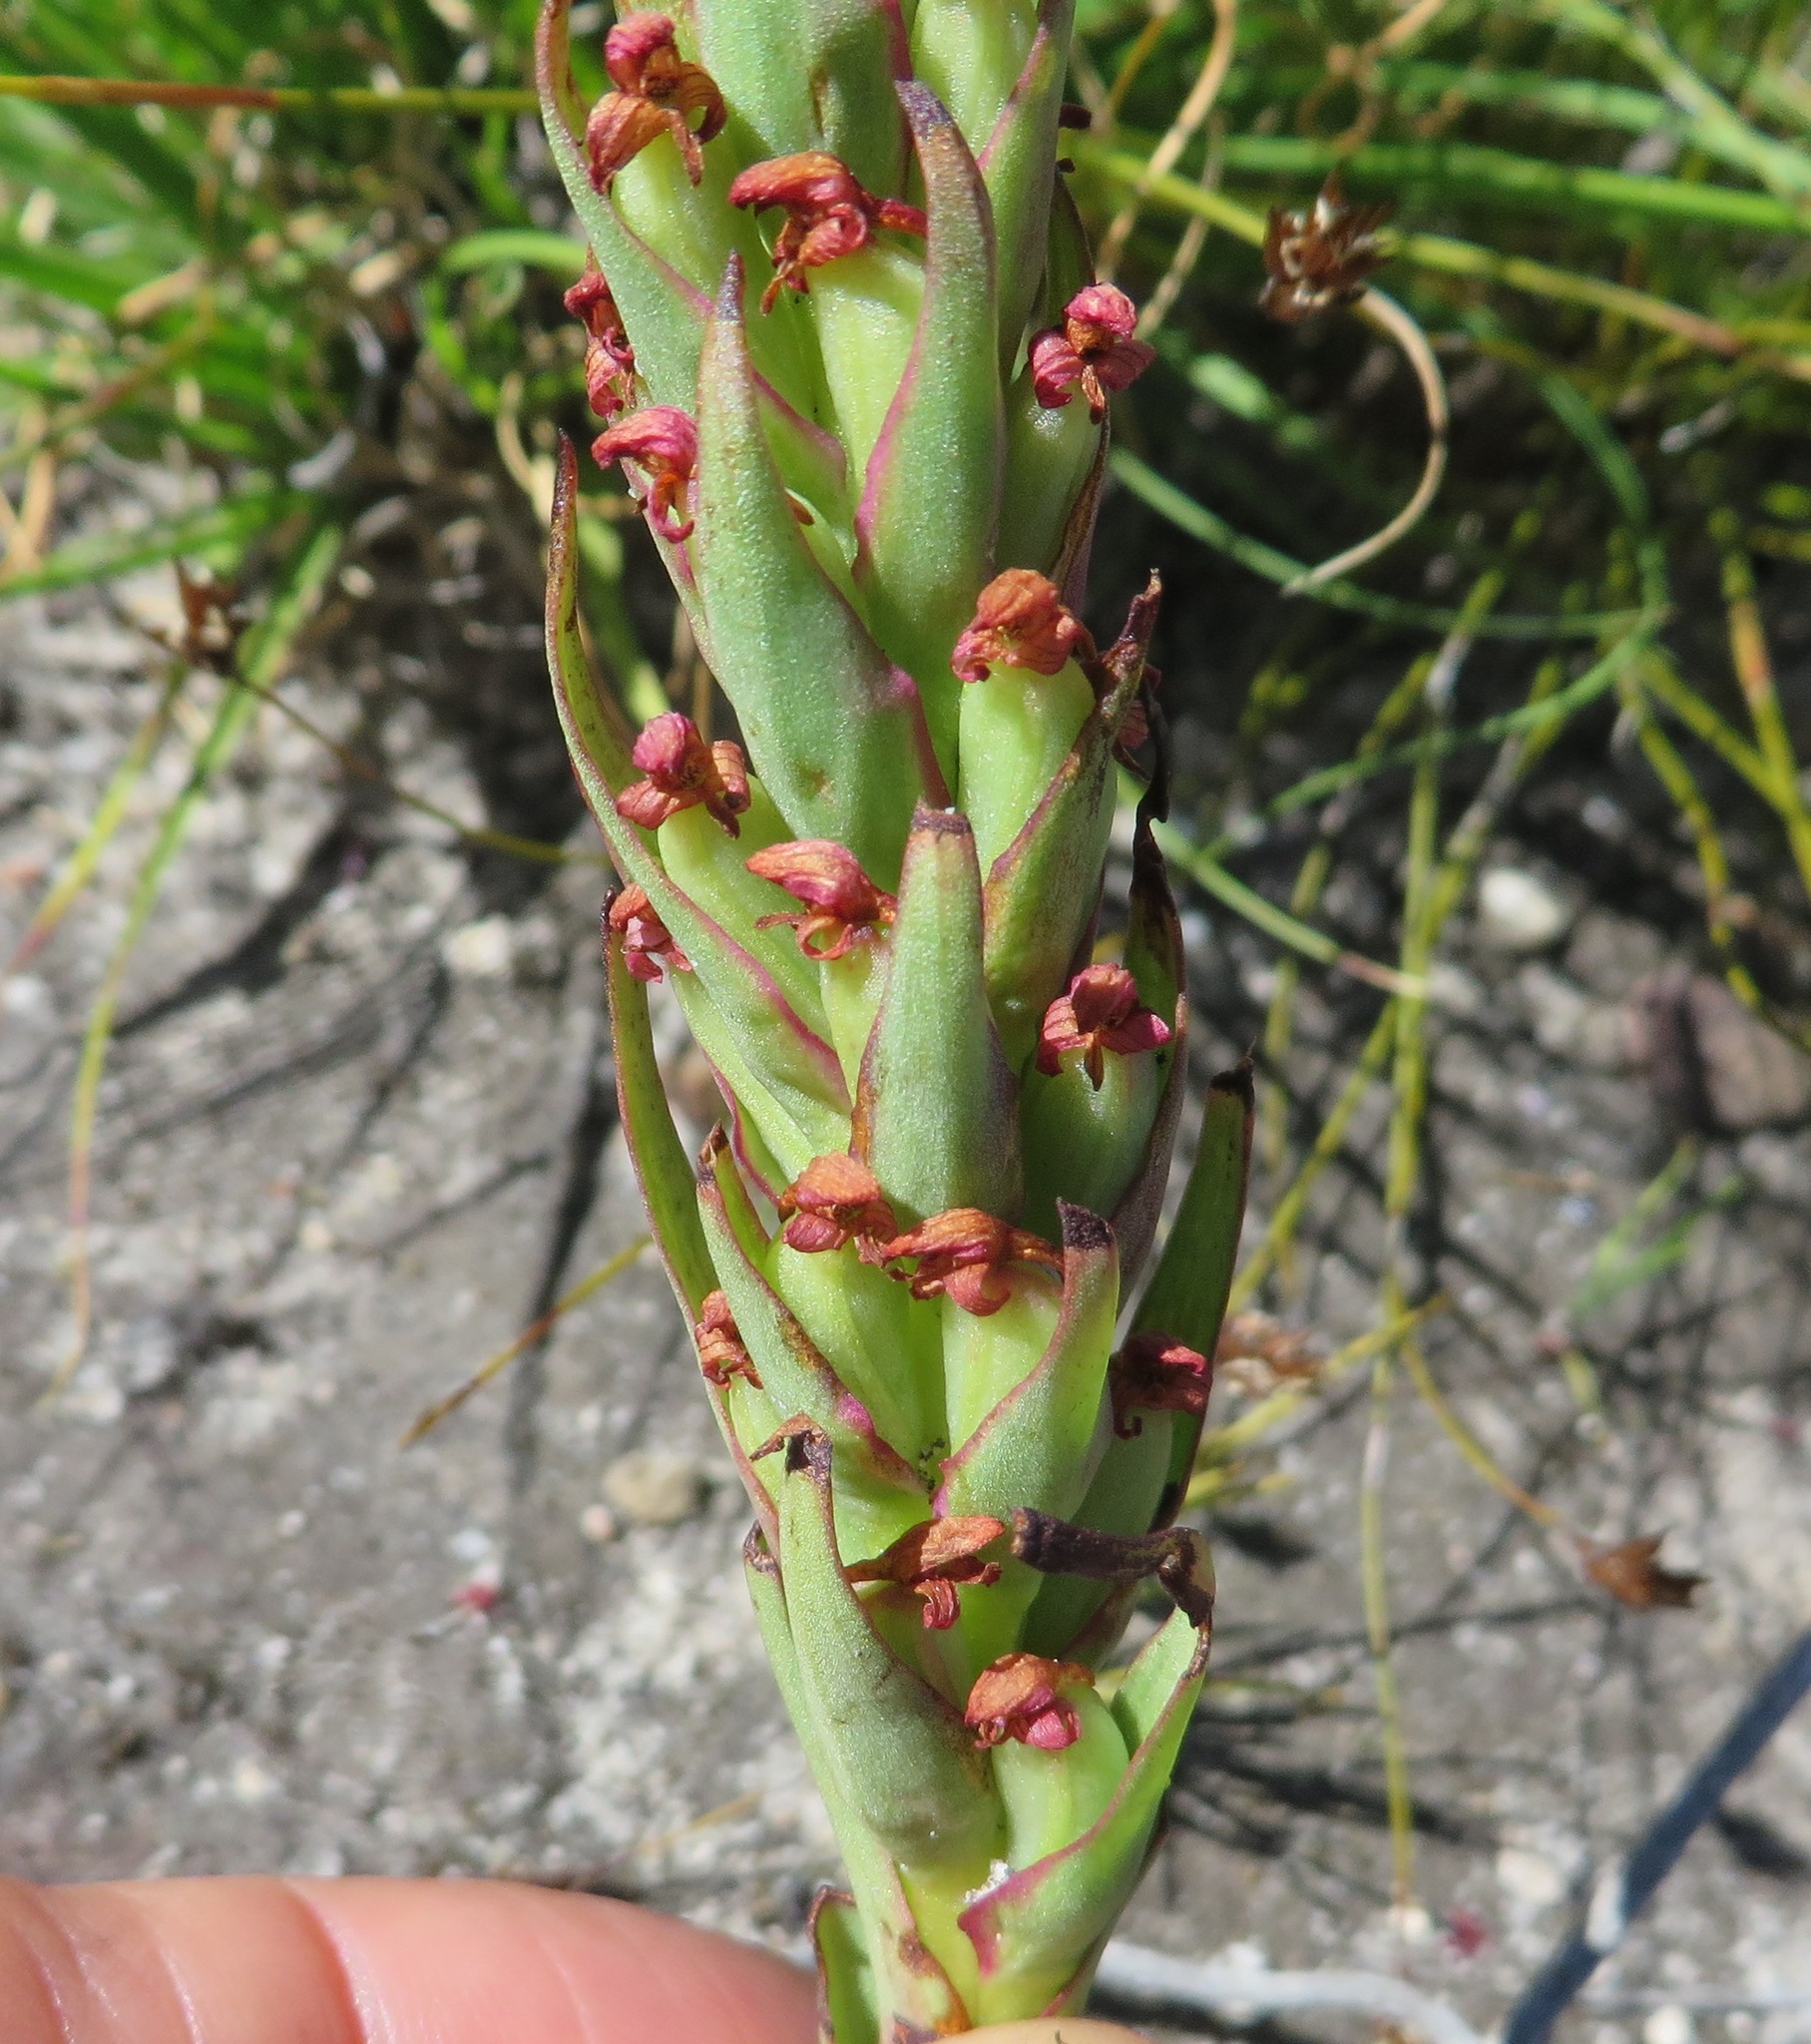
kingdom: Plantae
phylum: Tracheophyta
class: Liliopsida
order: Asparagales
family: Orchidaceae
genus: Disa
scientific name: Disa bracteata
